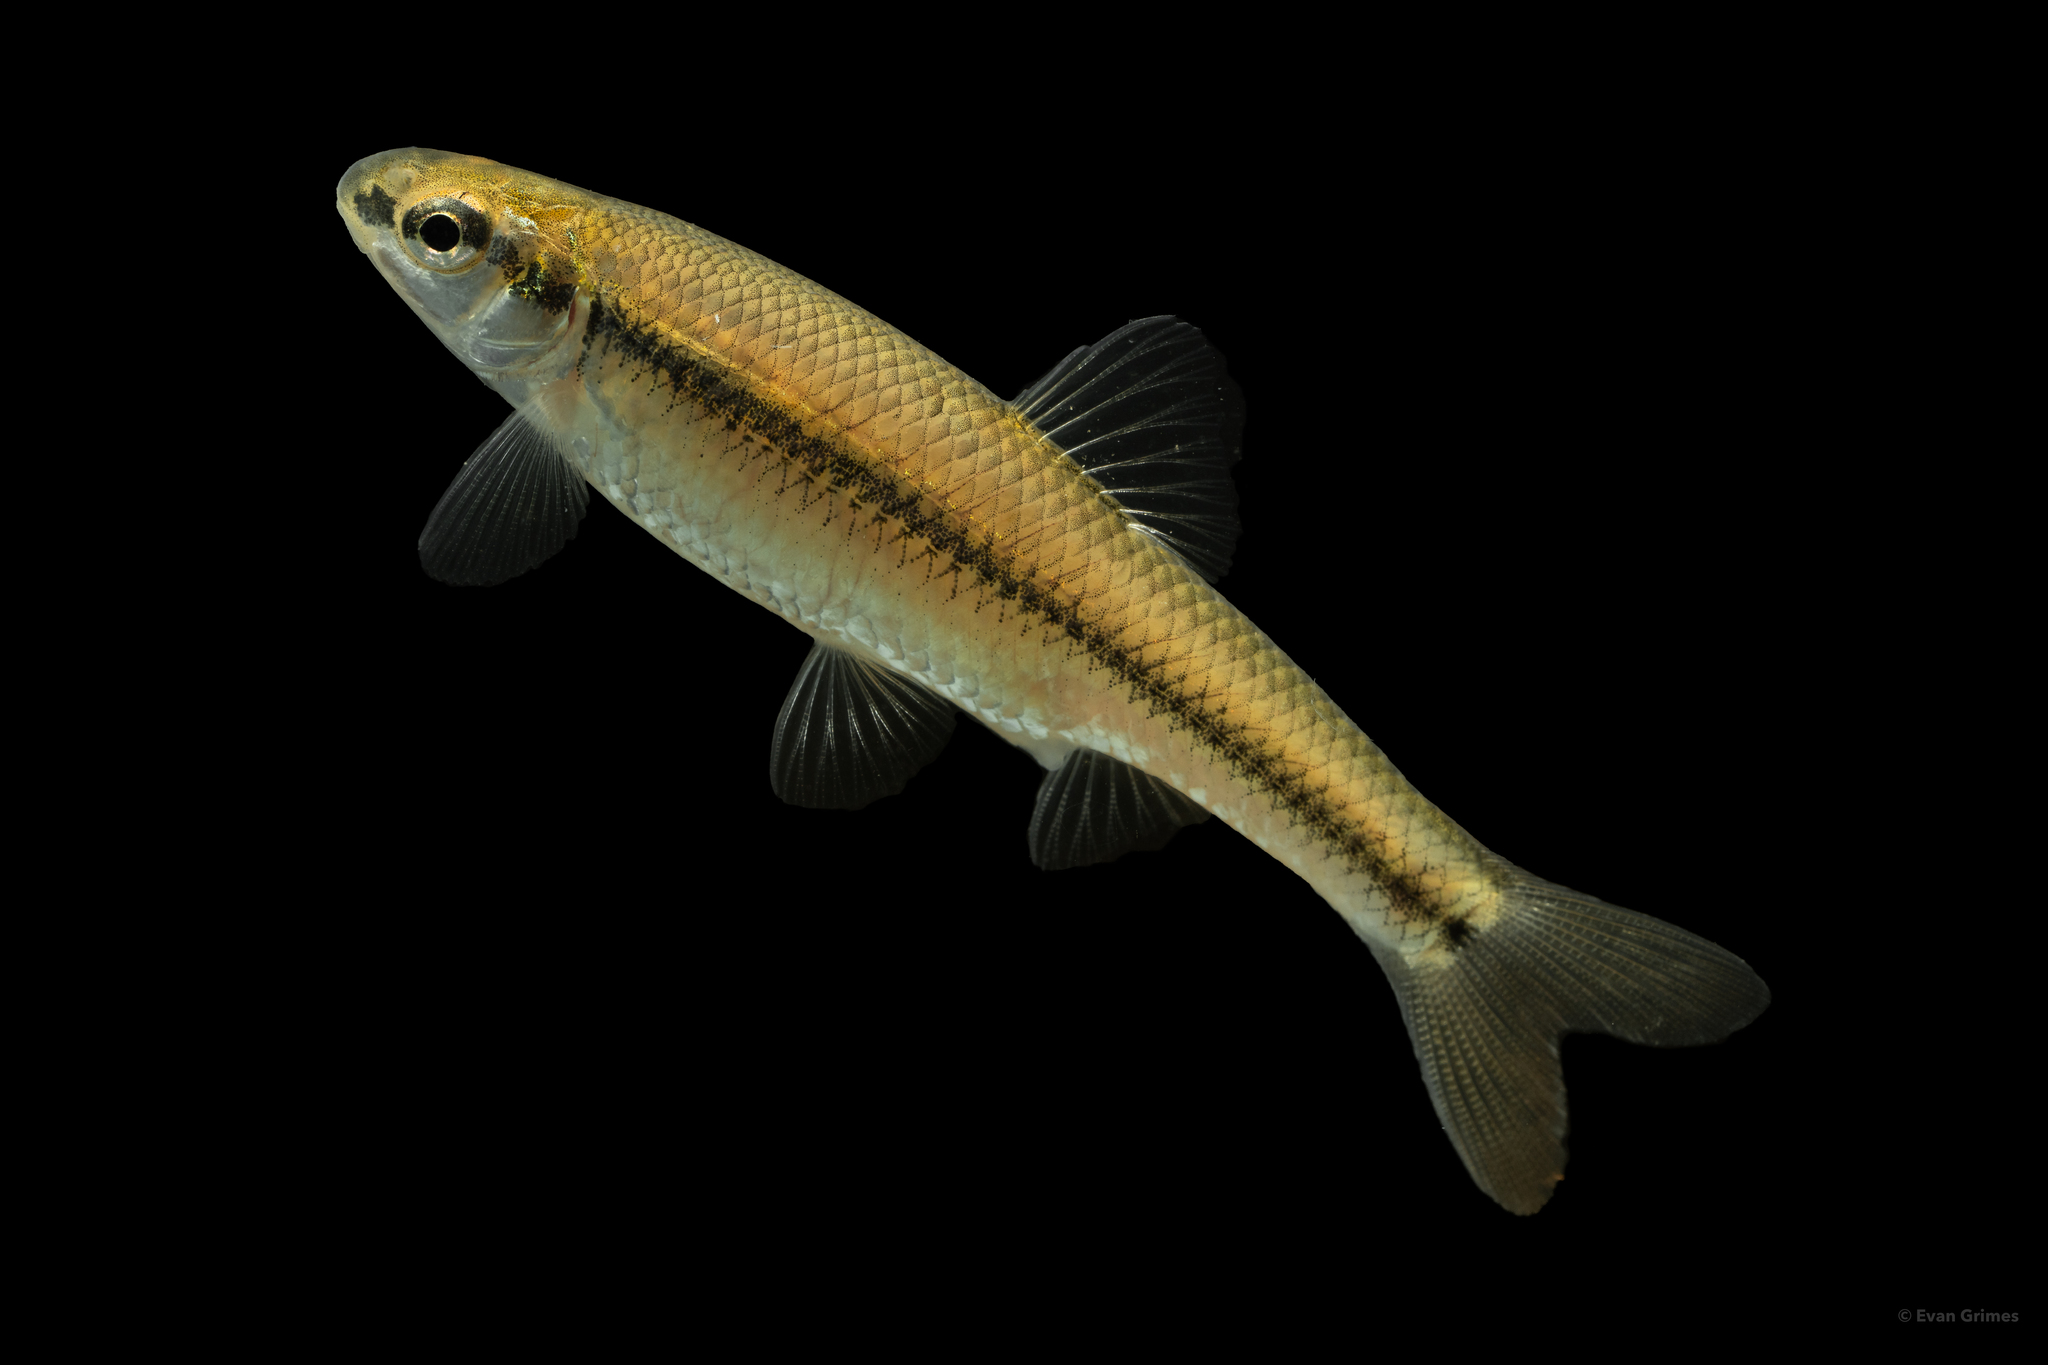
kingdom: Animalia
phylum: Chordata
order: Cypriniformes
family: Cyprinidae
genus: Pimephales
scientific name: Pimephales notatus
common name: Bluntnose minnow
